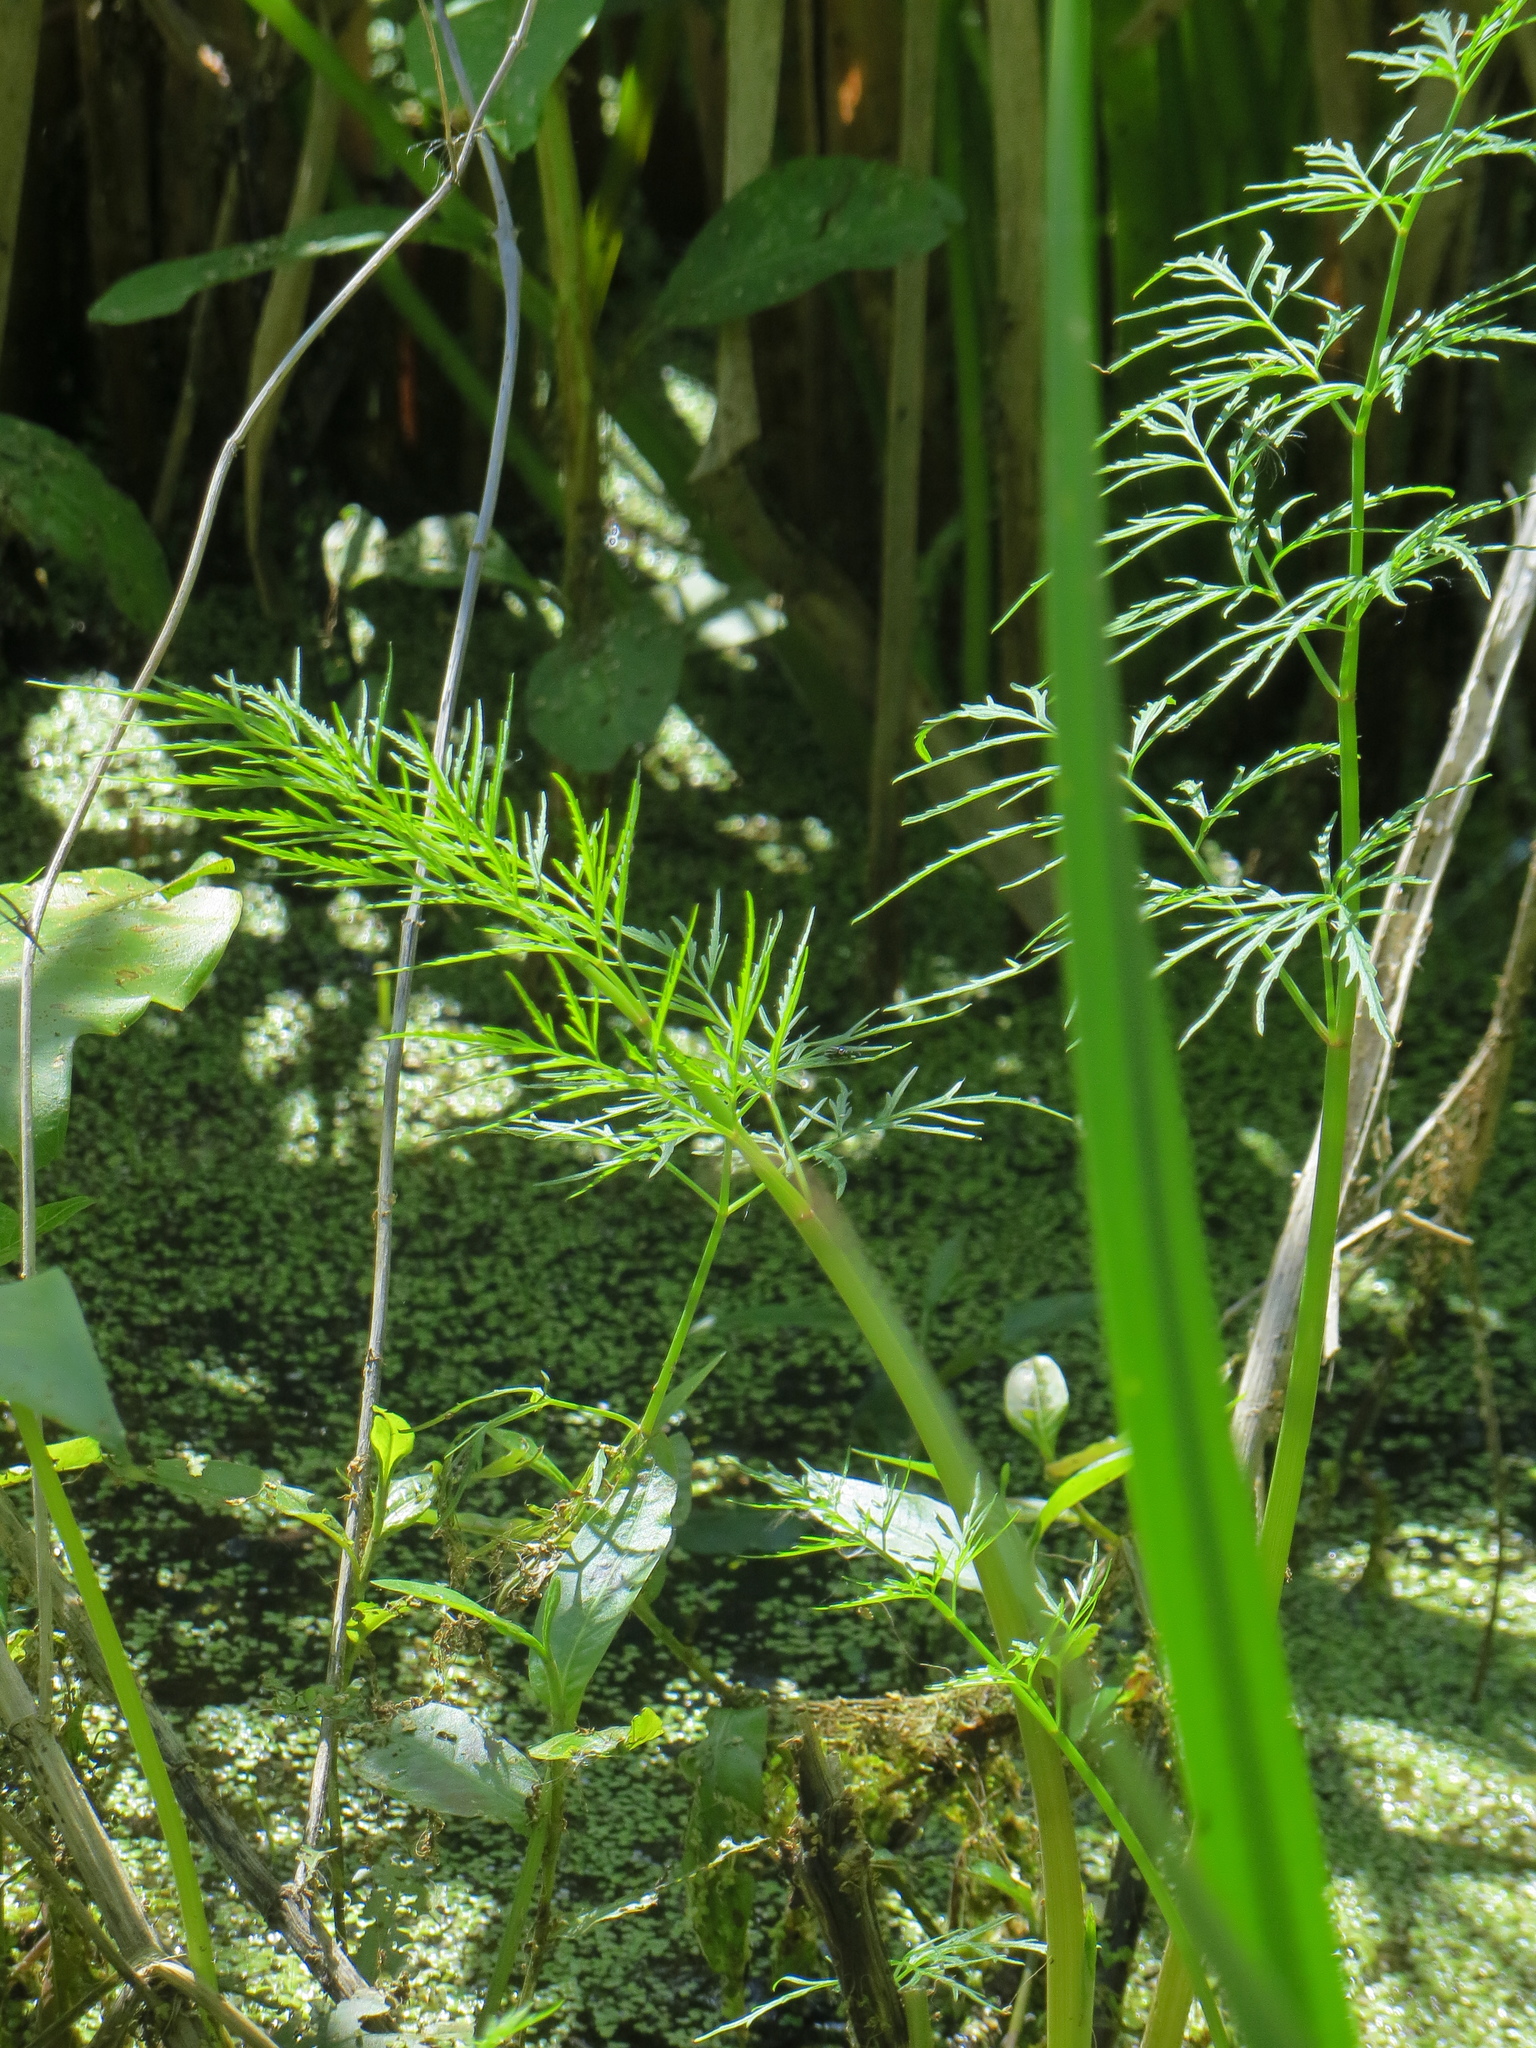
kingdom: Plantae
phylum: Tracheophyta
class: Magnoliopsida
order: Apiales
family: Apiaceae
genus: Cicuta
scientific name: Cicuta bulbifera
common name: Bulb-bearing water-hemlock
